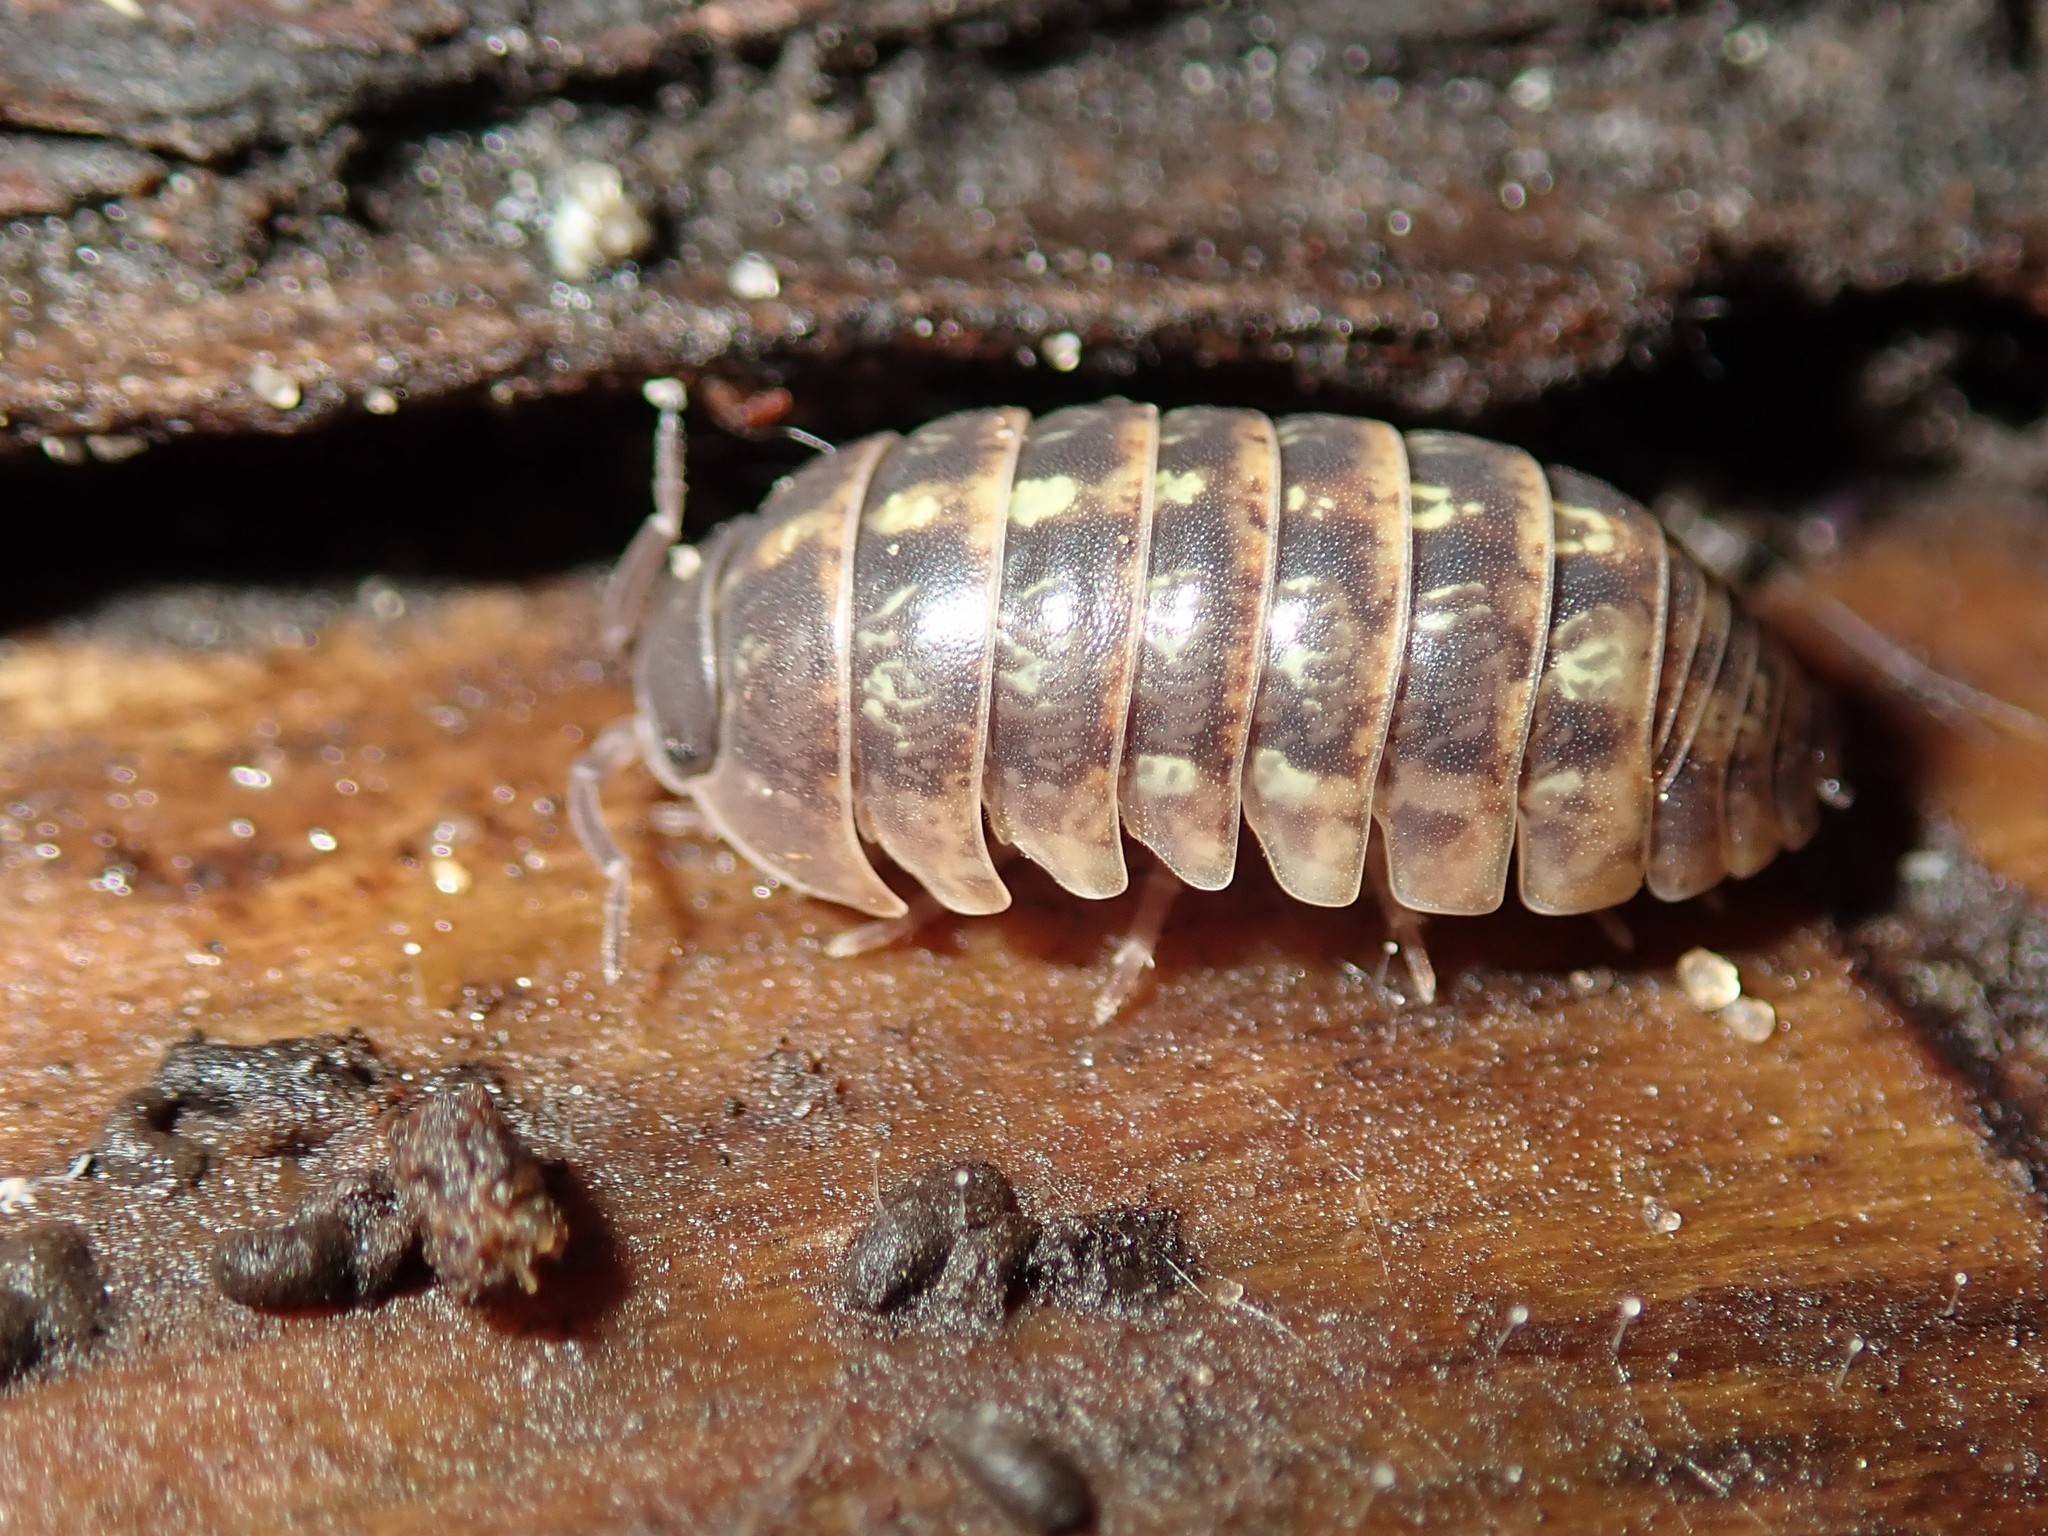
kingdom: Animalia
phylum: Arthropoda
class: Malacostraca
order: Isopoda
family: Armadillidiidae
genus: Armadillidium
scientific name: Armadillidium vulgare
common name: Common pill woodlouse
